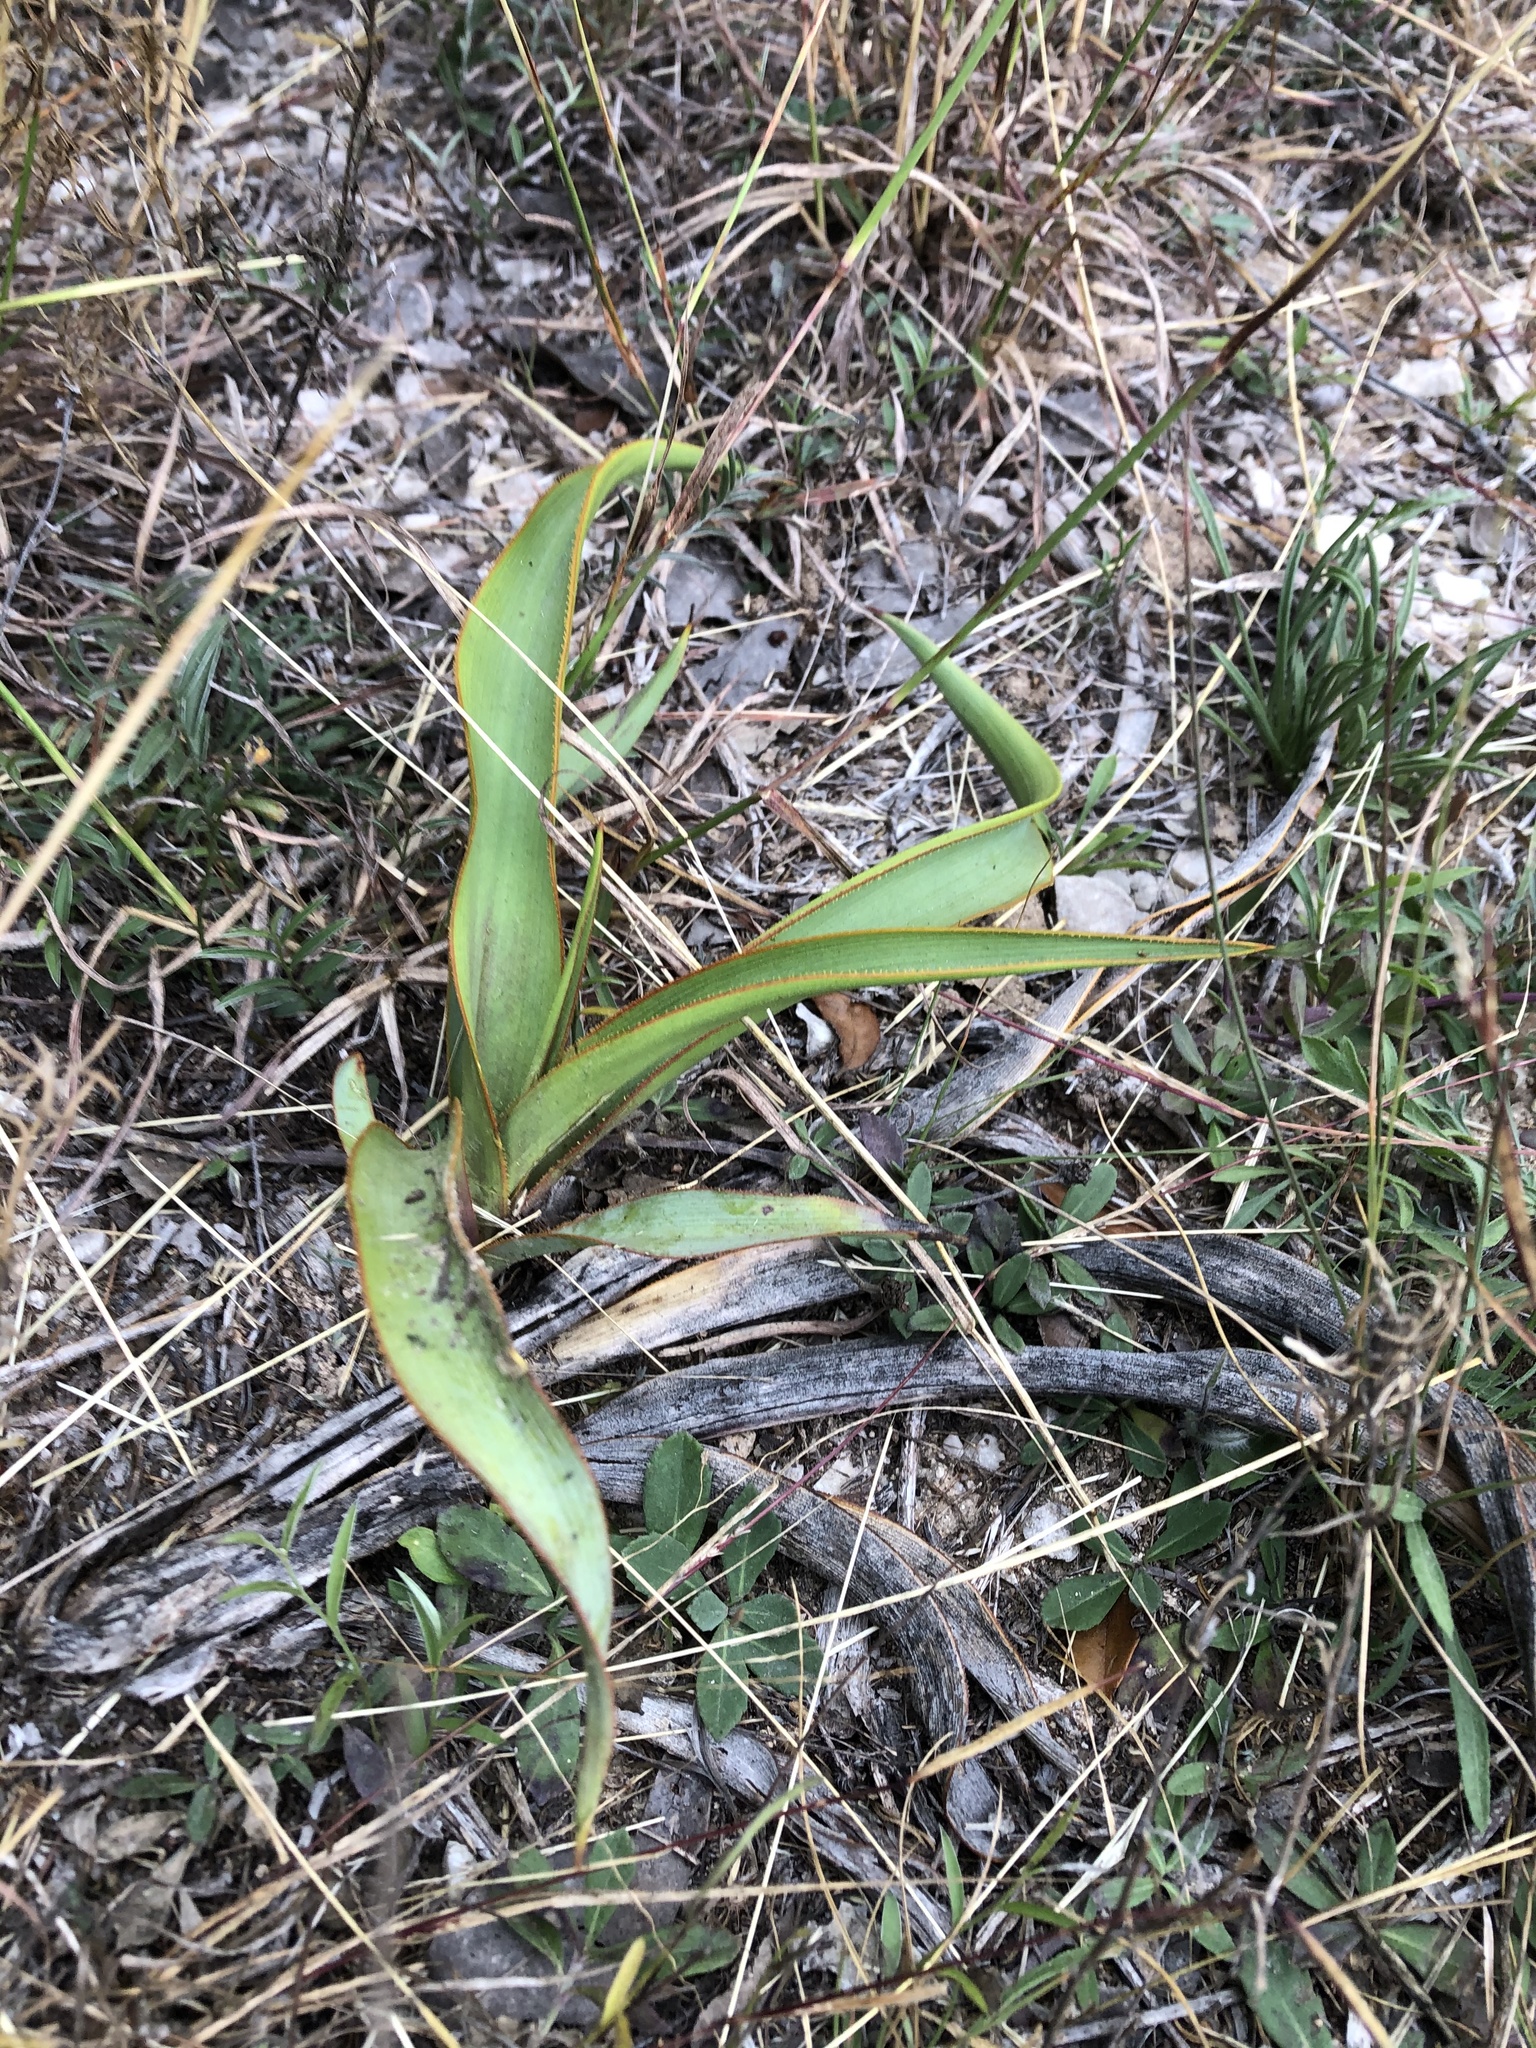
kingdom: Plantae
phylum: Tracheophyta
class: Liliopsida
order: Asparagales
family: Asparagaceae
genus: Yucca
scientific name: Yucca rupicola
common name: Twisted-leaf spanish-dagger
